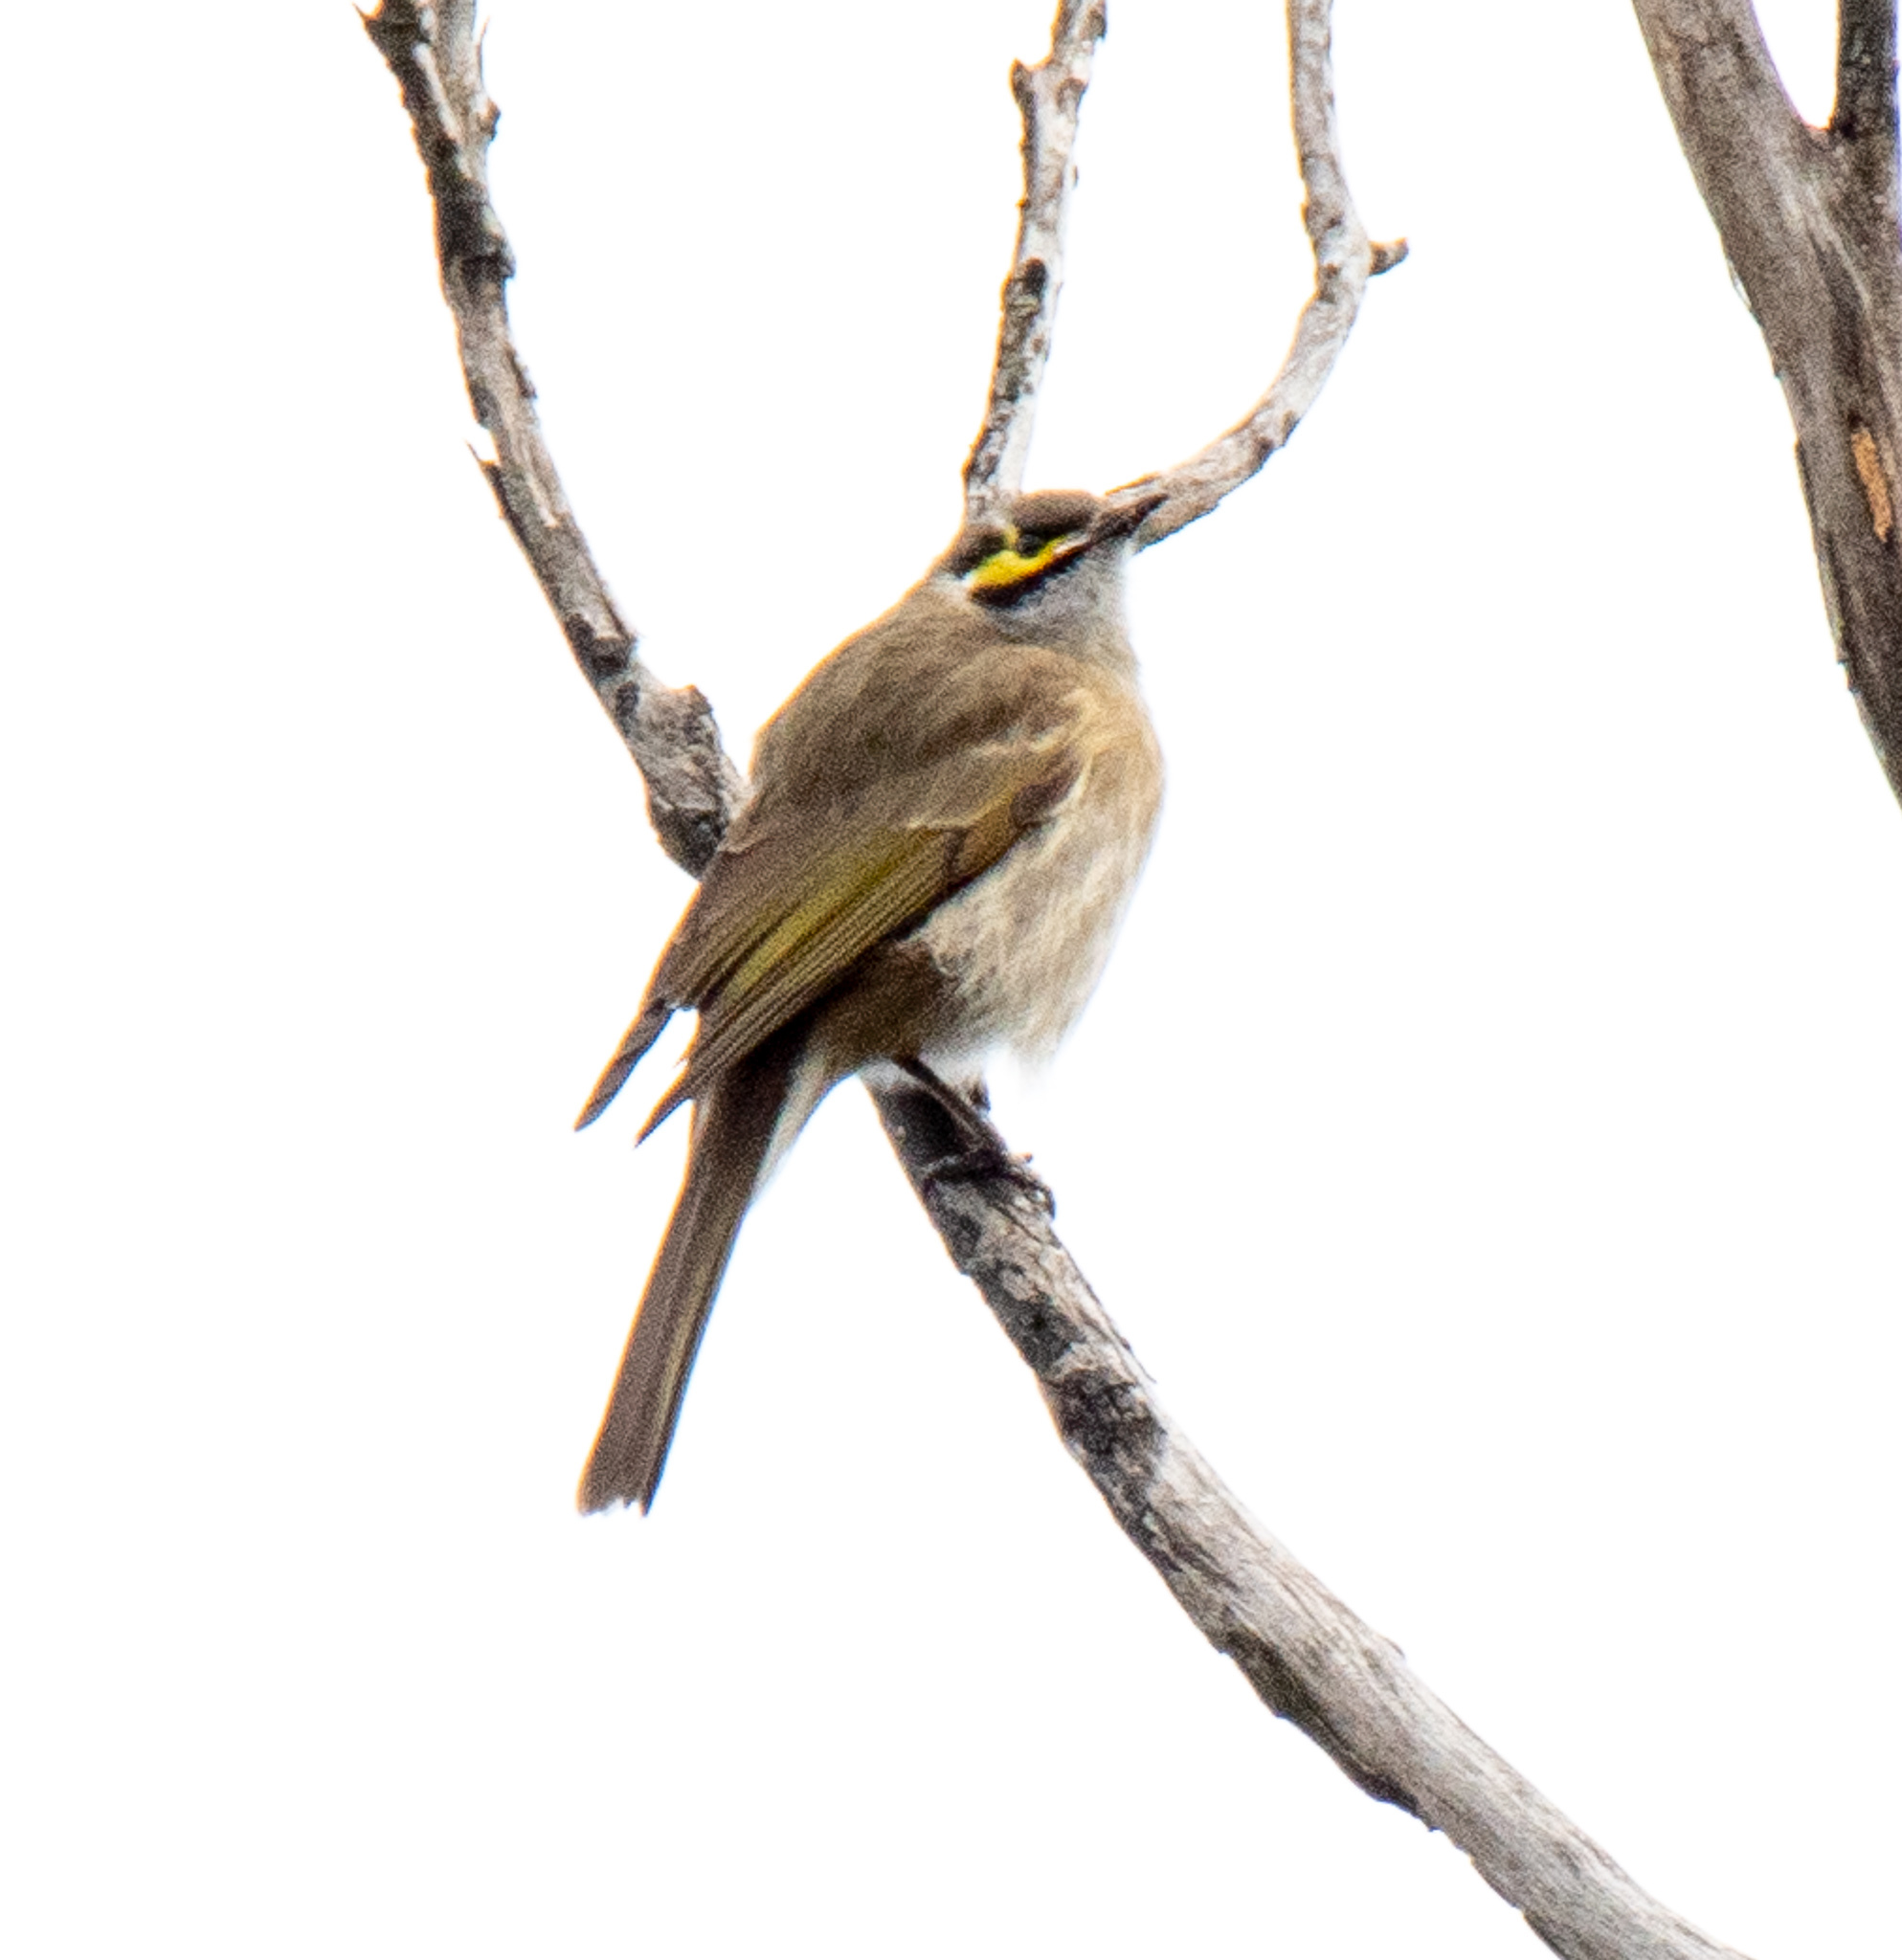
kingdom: Animalia
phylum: Chordata
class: Aves
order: Passeriformes
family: Meliphagidae
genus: Caligavis
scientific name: Caligavis chrysops
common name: Yellow-faced honeyeater
